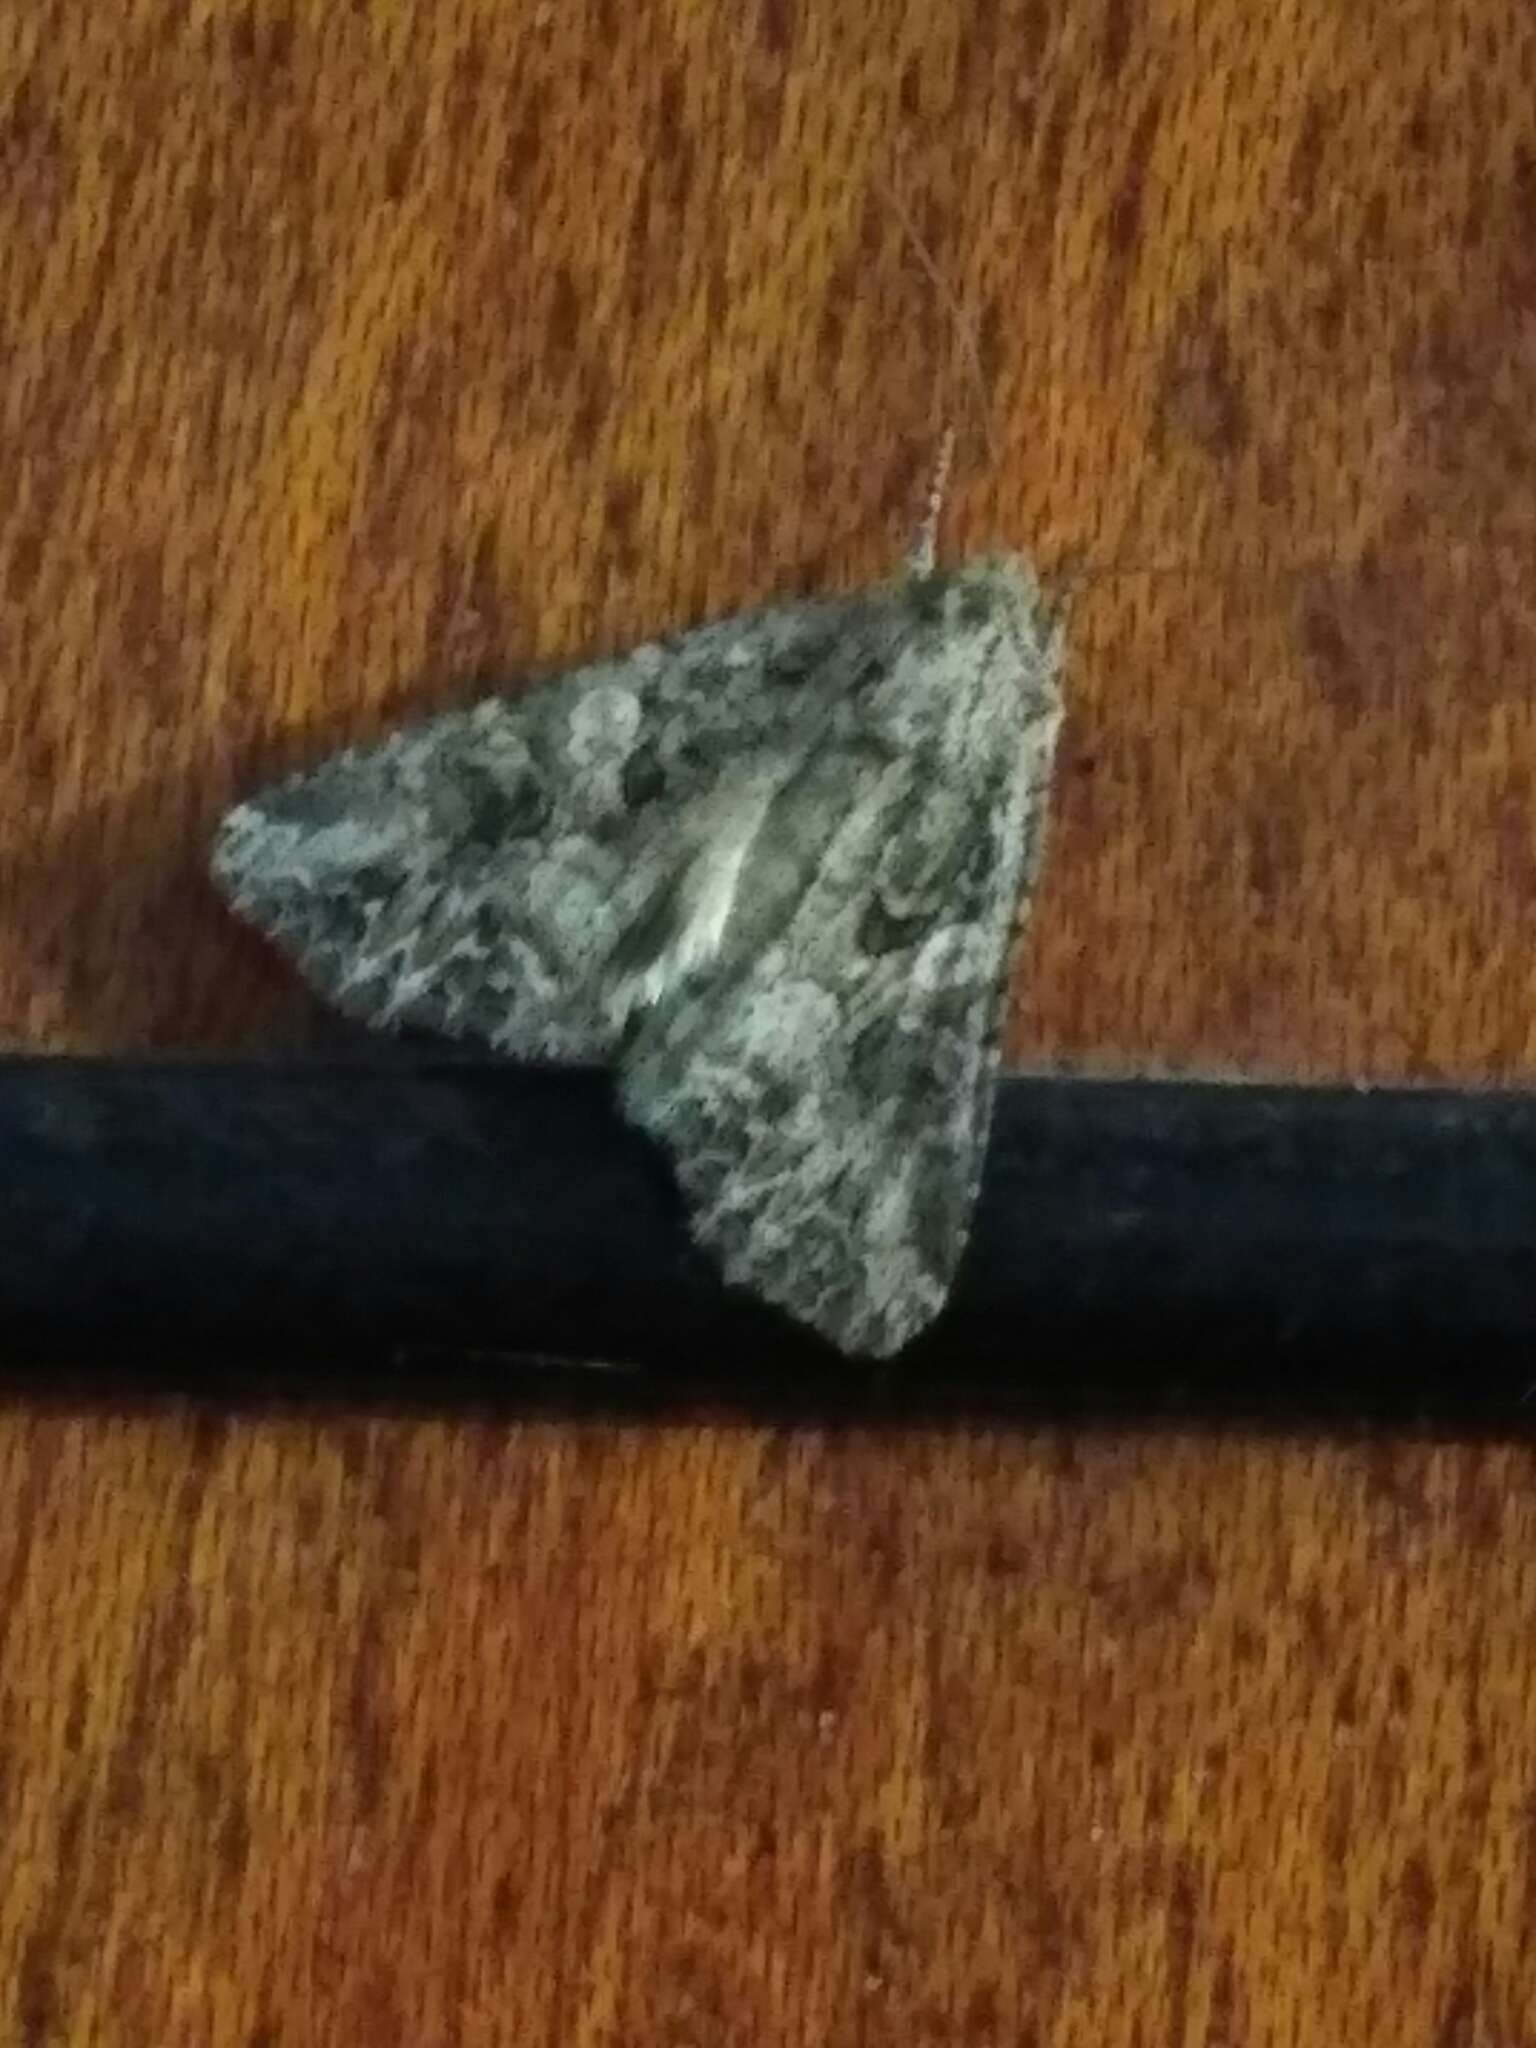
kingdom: Animalia
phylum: Arthropoda
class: Insecta
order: Lepidoptera
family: Noctuidae
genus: Anarta
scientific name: Anarta trifolii
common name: Clover cutworm moth
